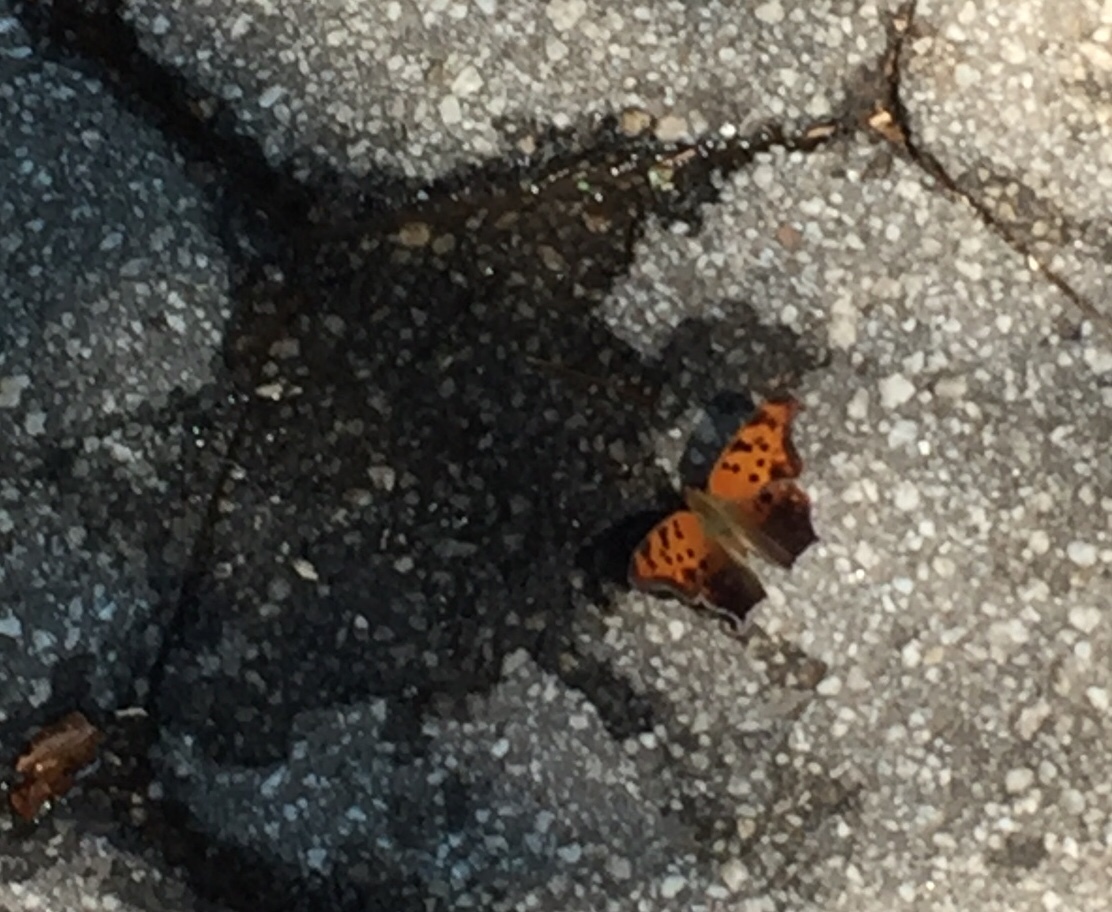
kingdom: Animalia
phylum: Arthropoda
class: Insecta
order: Lepidoptera
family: Nymphalidae
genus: Polygonia
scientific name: Polygonia interrogationis
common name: Question mark
